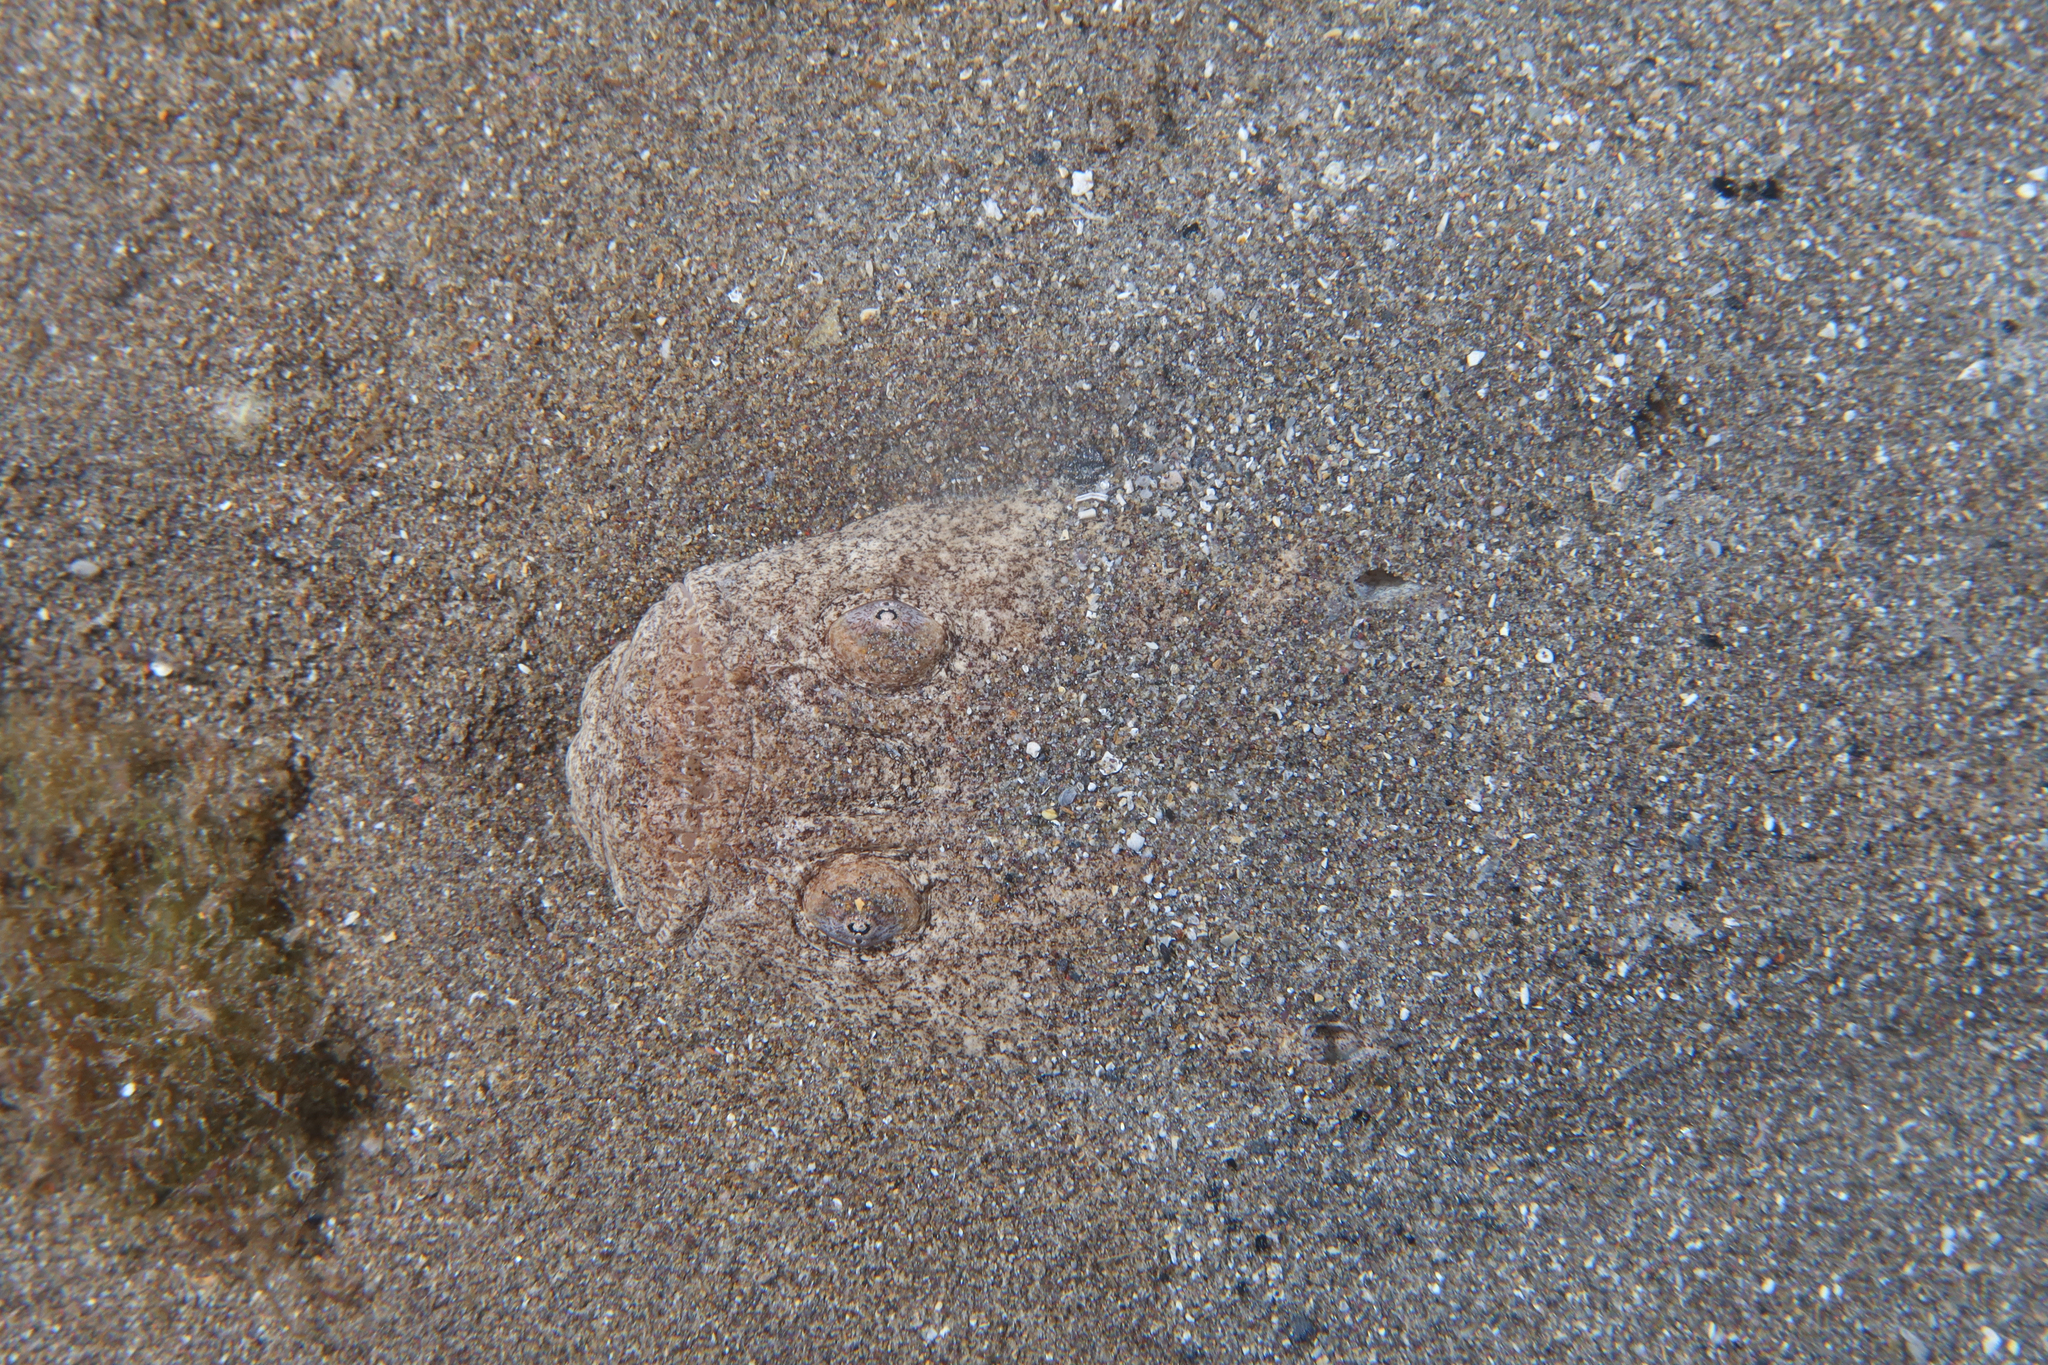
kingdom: Animalia
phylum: Chordata
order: Perciformes
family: Uranoscopidae
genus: Uranoscopus
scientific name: Uranoscopus scaber
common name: Stargazer
